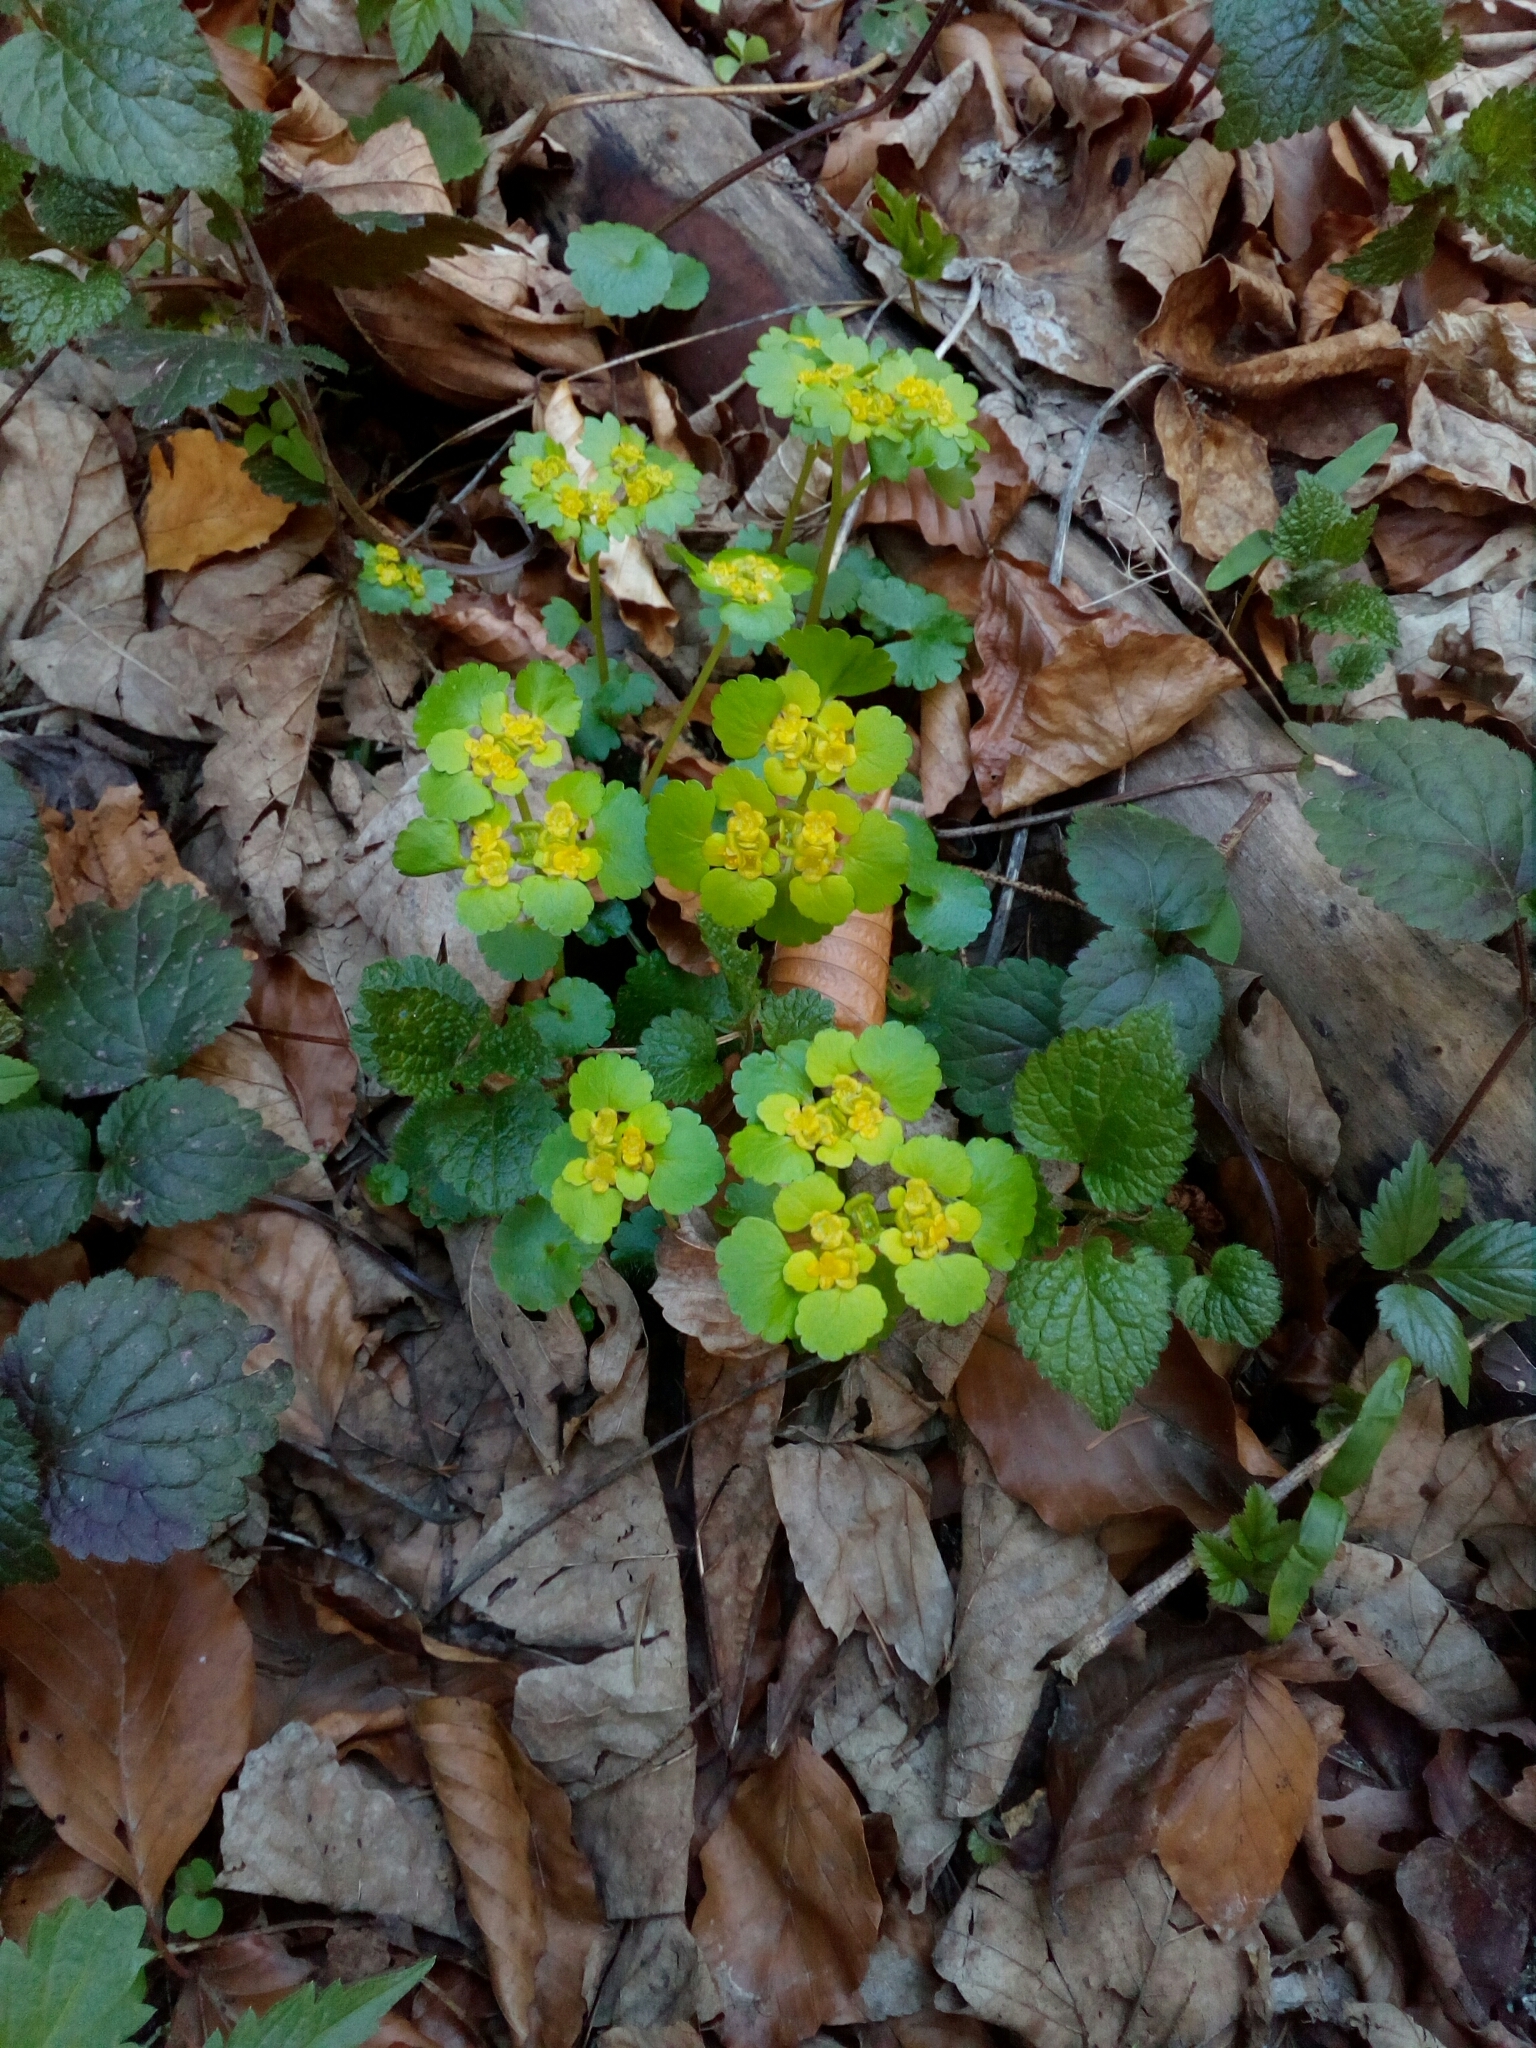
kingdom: Plantae
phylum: Tracheophyta
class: Magnoliopsida
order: Saxifragales
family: Saxifragaceae
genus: Chrysosplenium
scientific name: Chrysosplenium alternifolium
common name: Alternate-leaved golden-saxifrage
